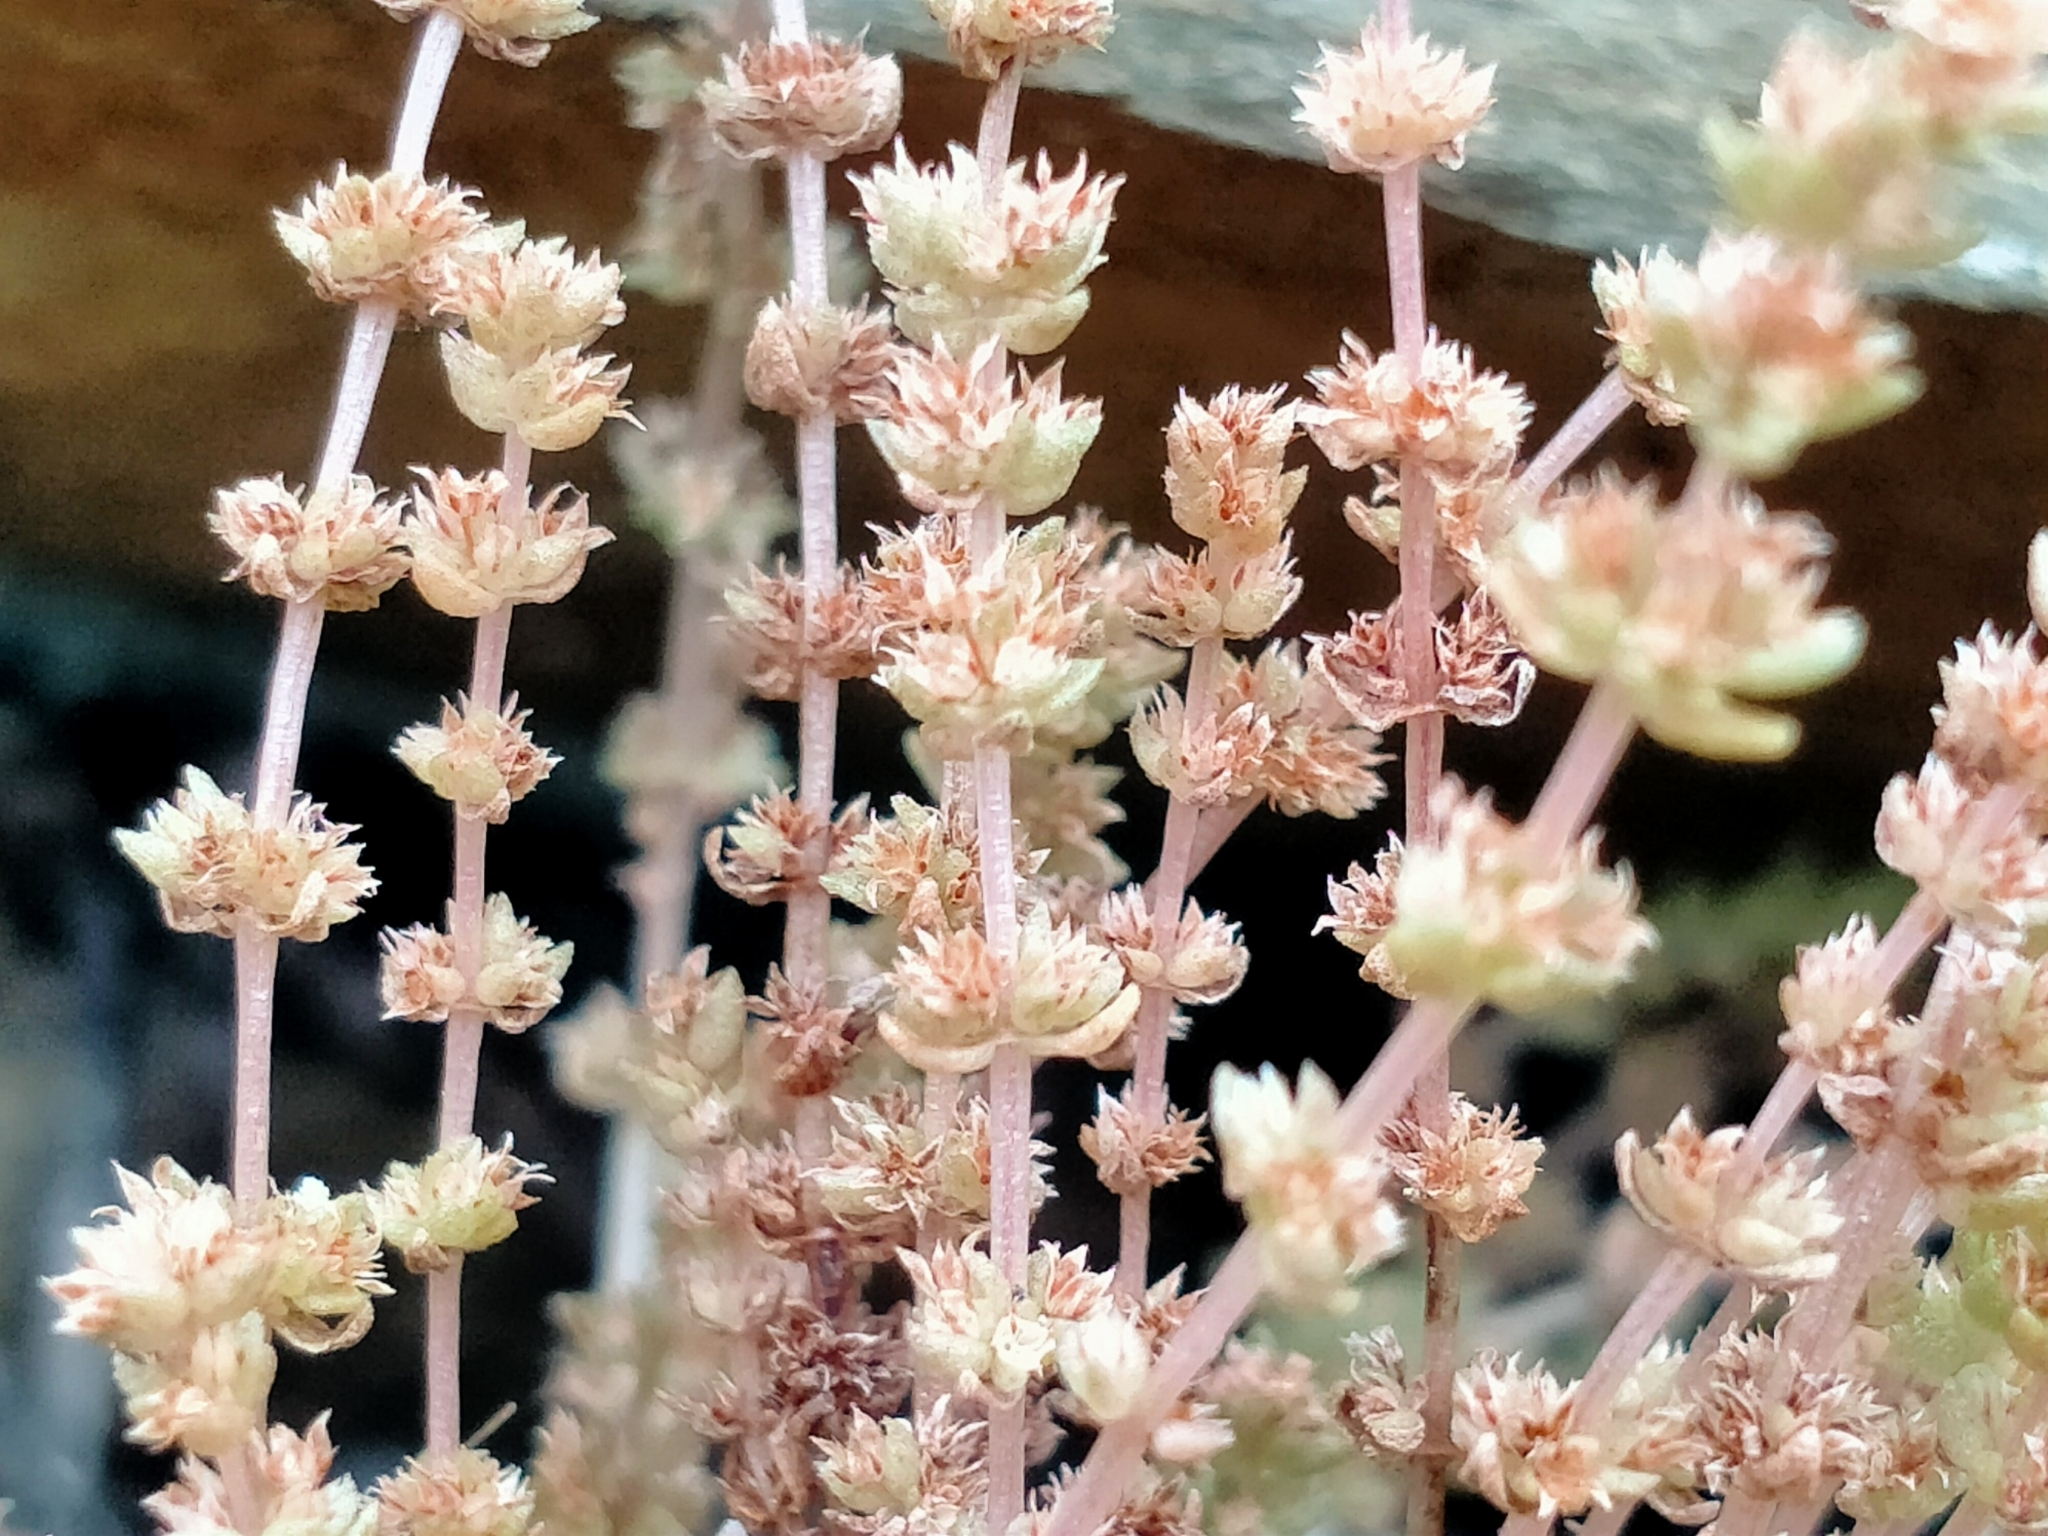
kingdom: Plantae
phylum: Tracheophyta
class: Magnoliopsida
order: Saxifragales
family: Crassulaceae
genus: Crassula
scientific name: Crassula sieberiana
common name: Siberian pygmyweed
